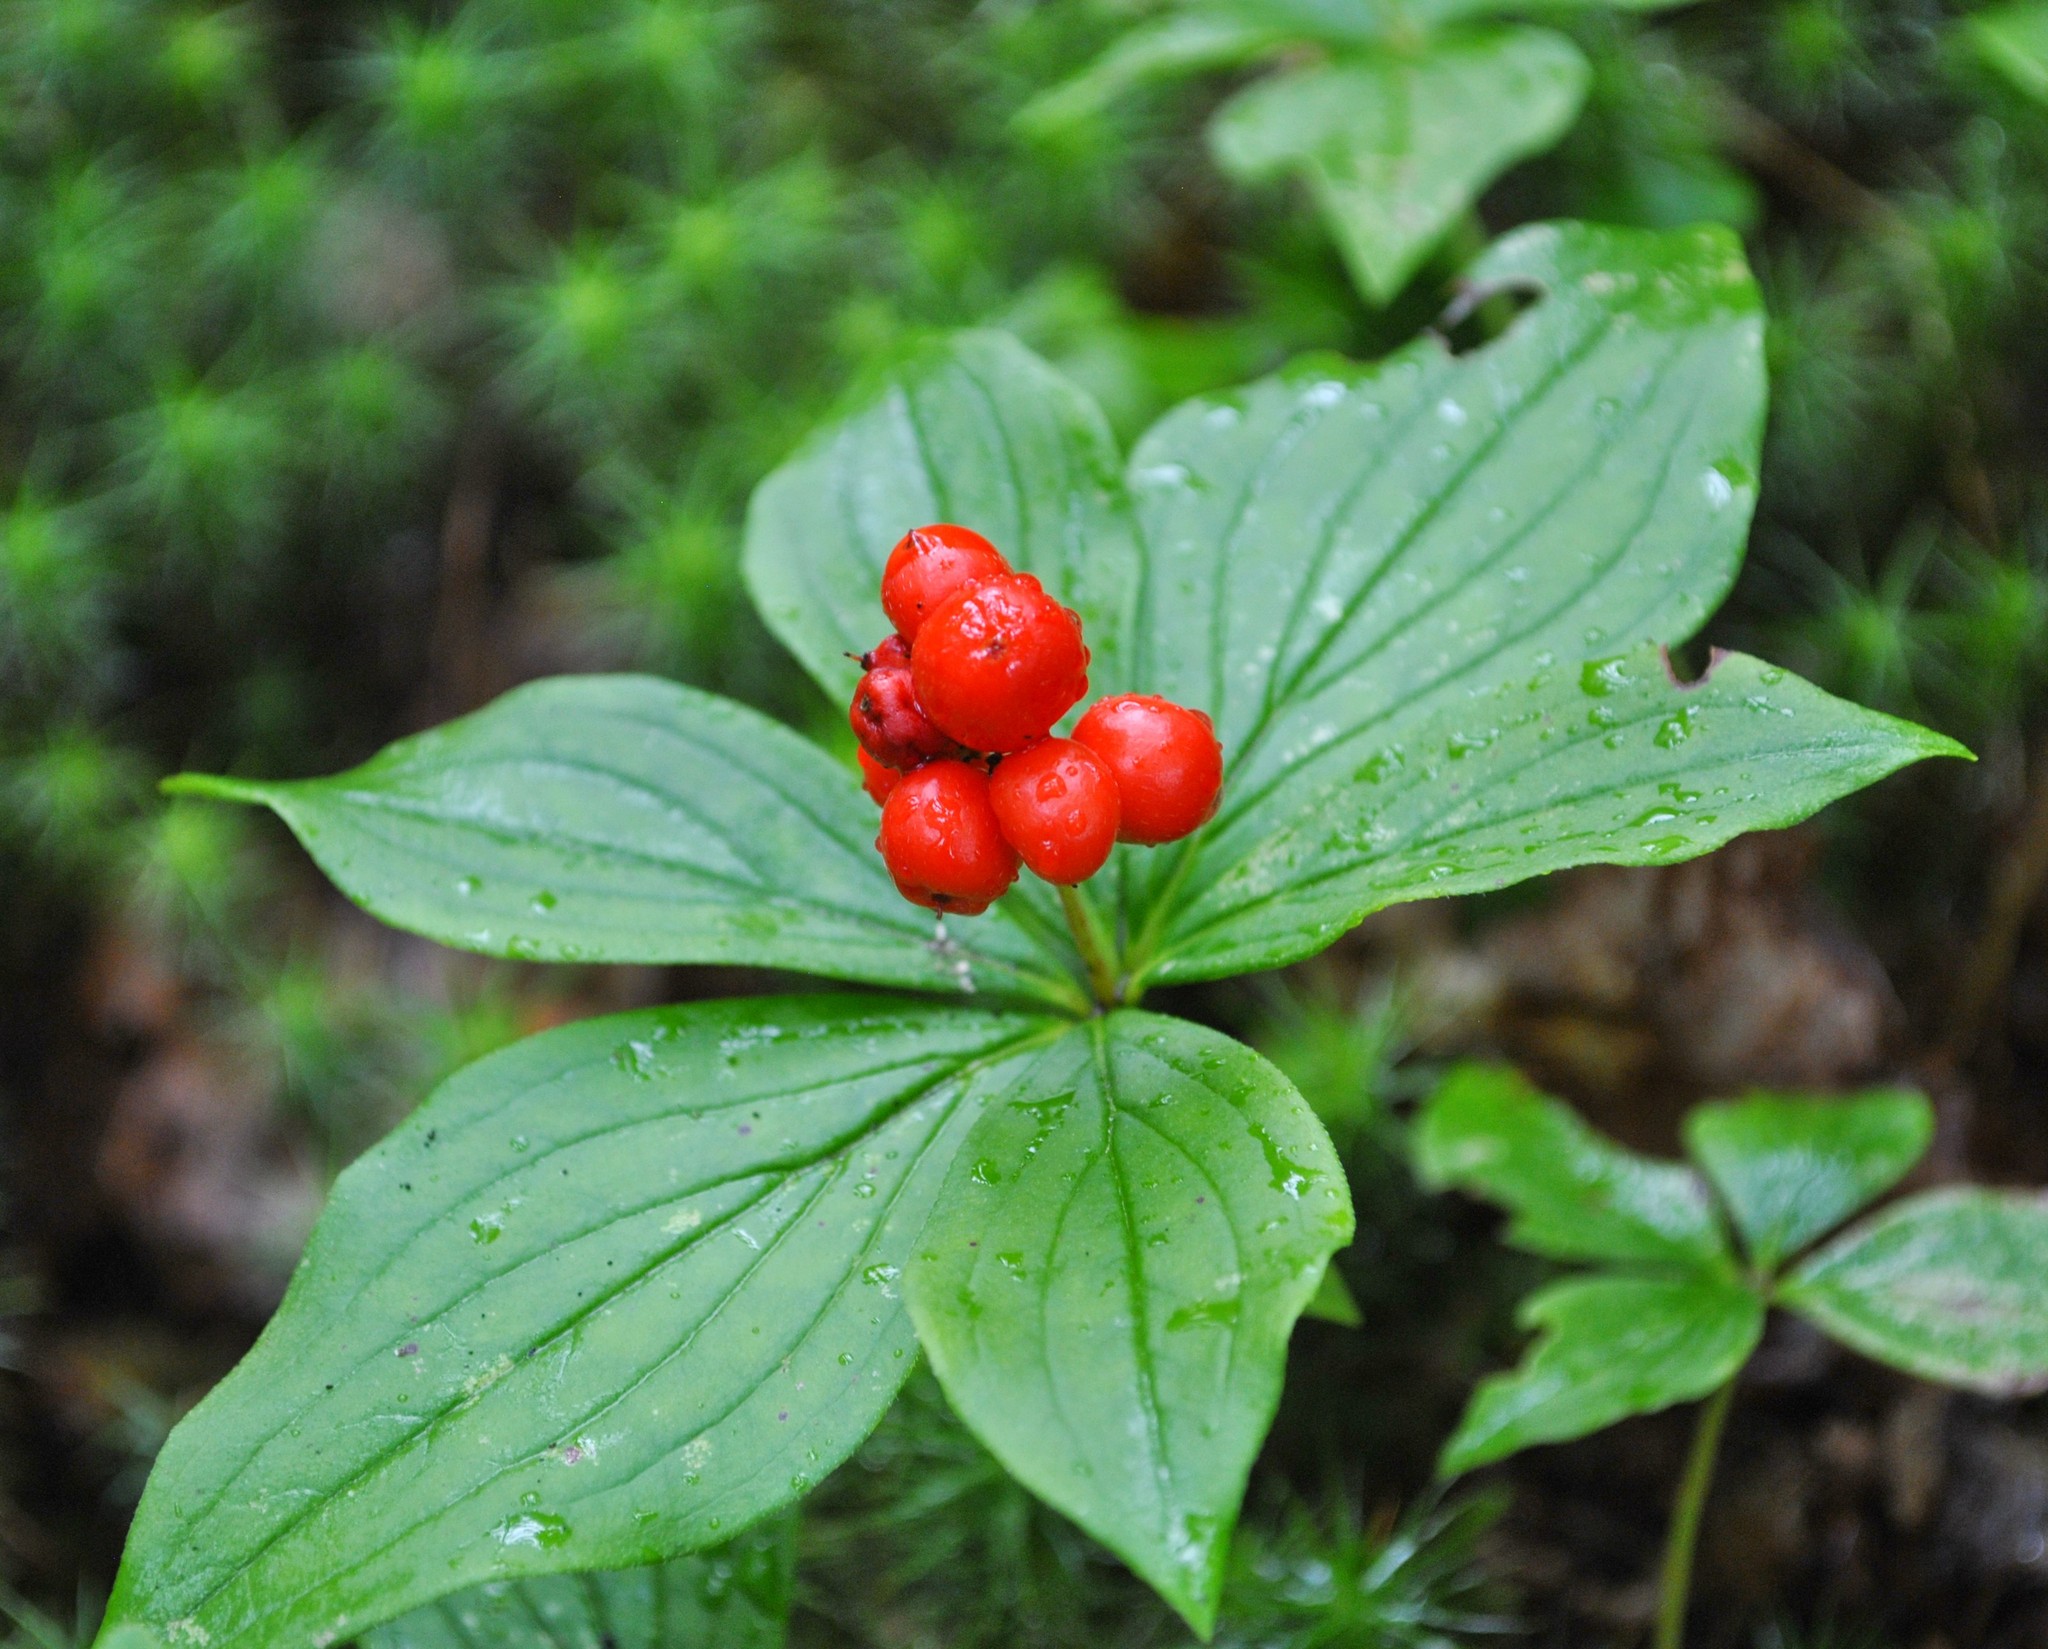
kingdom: Plantae
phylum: Tracheophyta
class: Magnoliopsida
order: Cornales
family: Cornaceae
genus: Cornus
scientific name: Cornus canadensis
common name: Creeping dogwood
